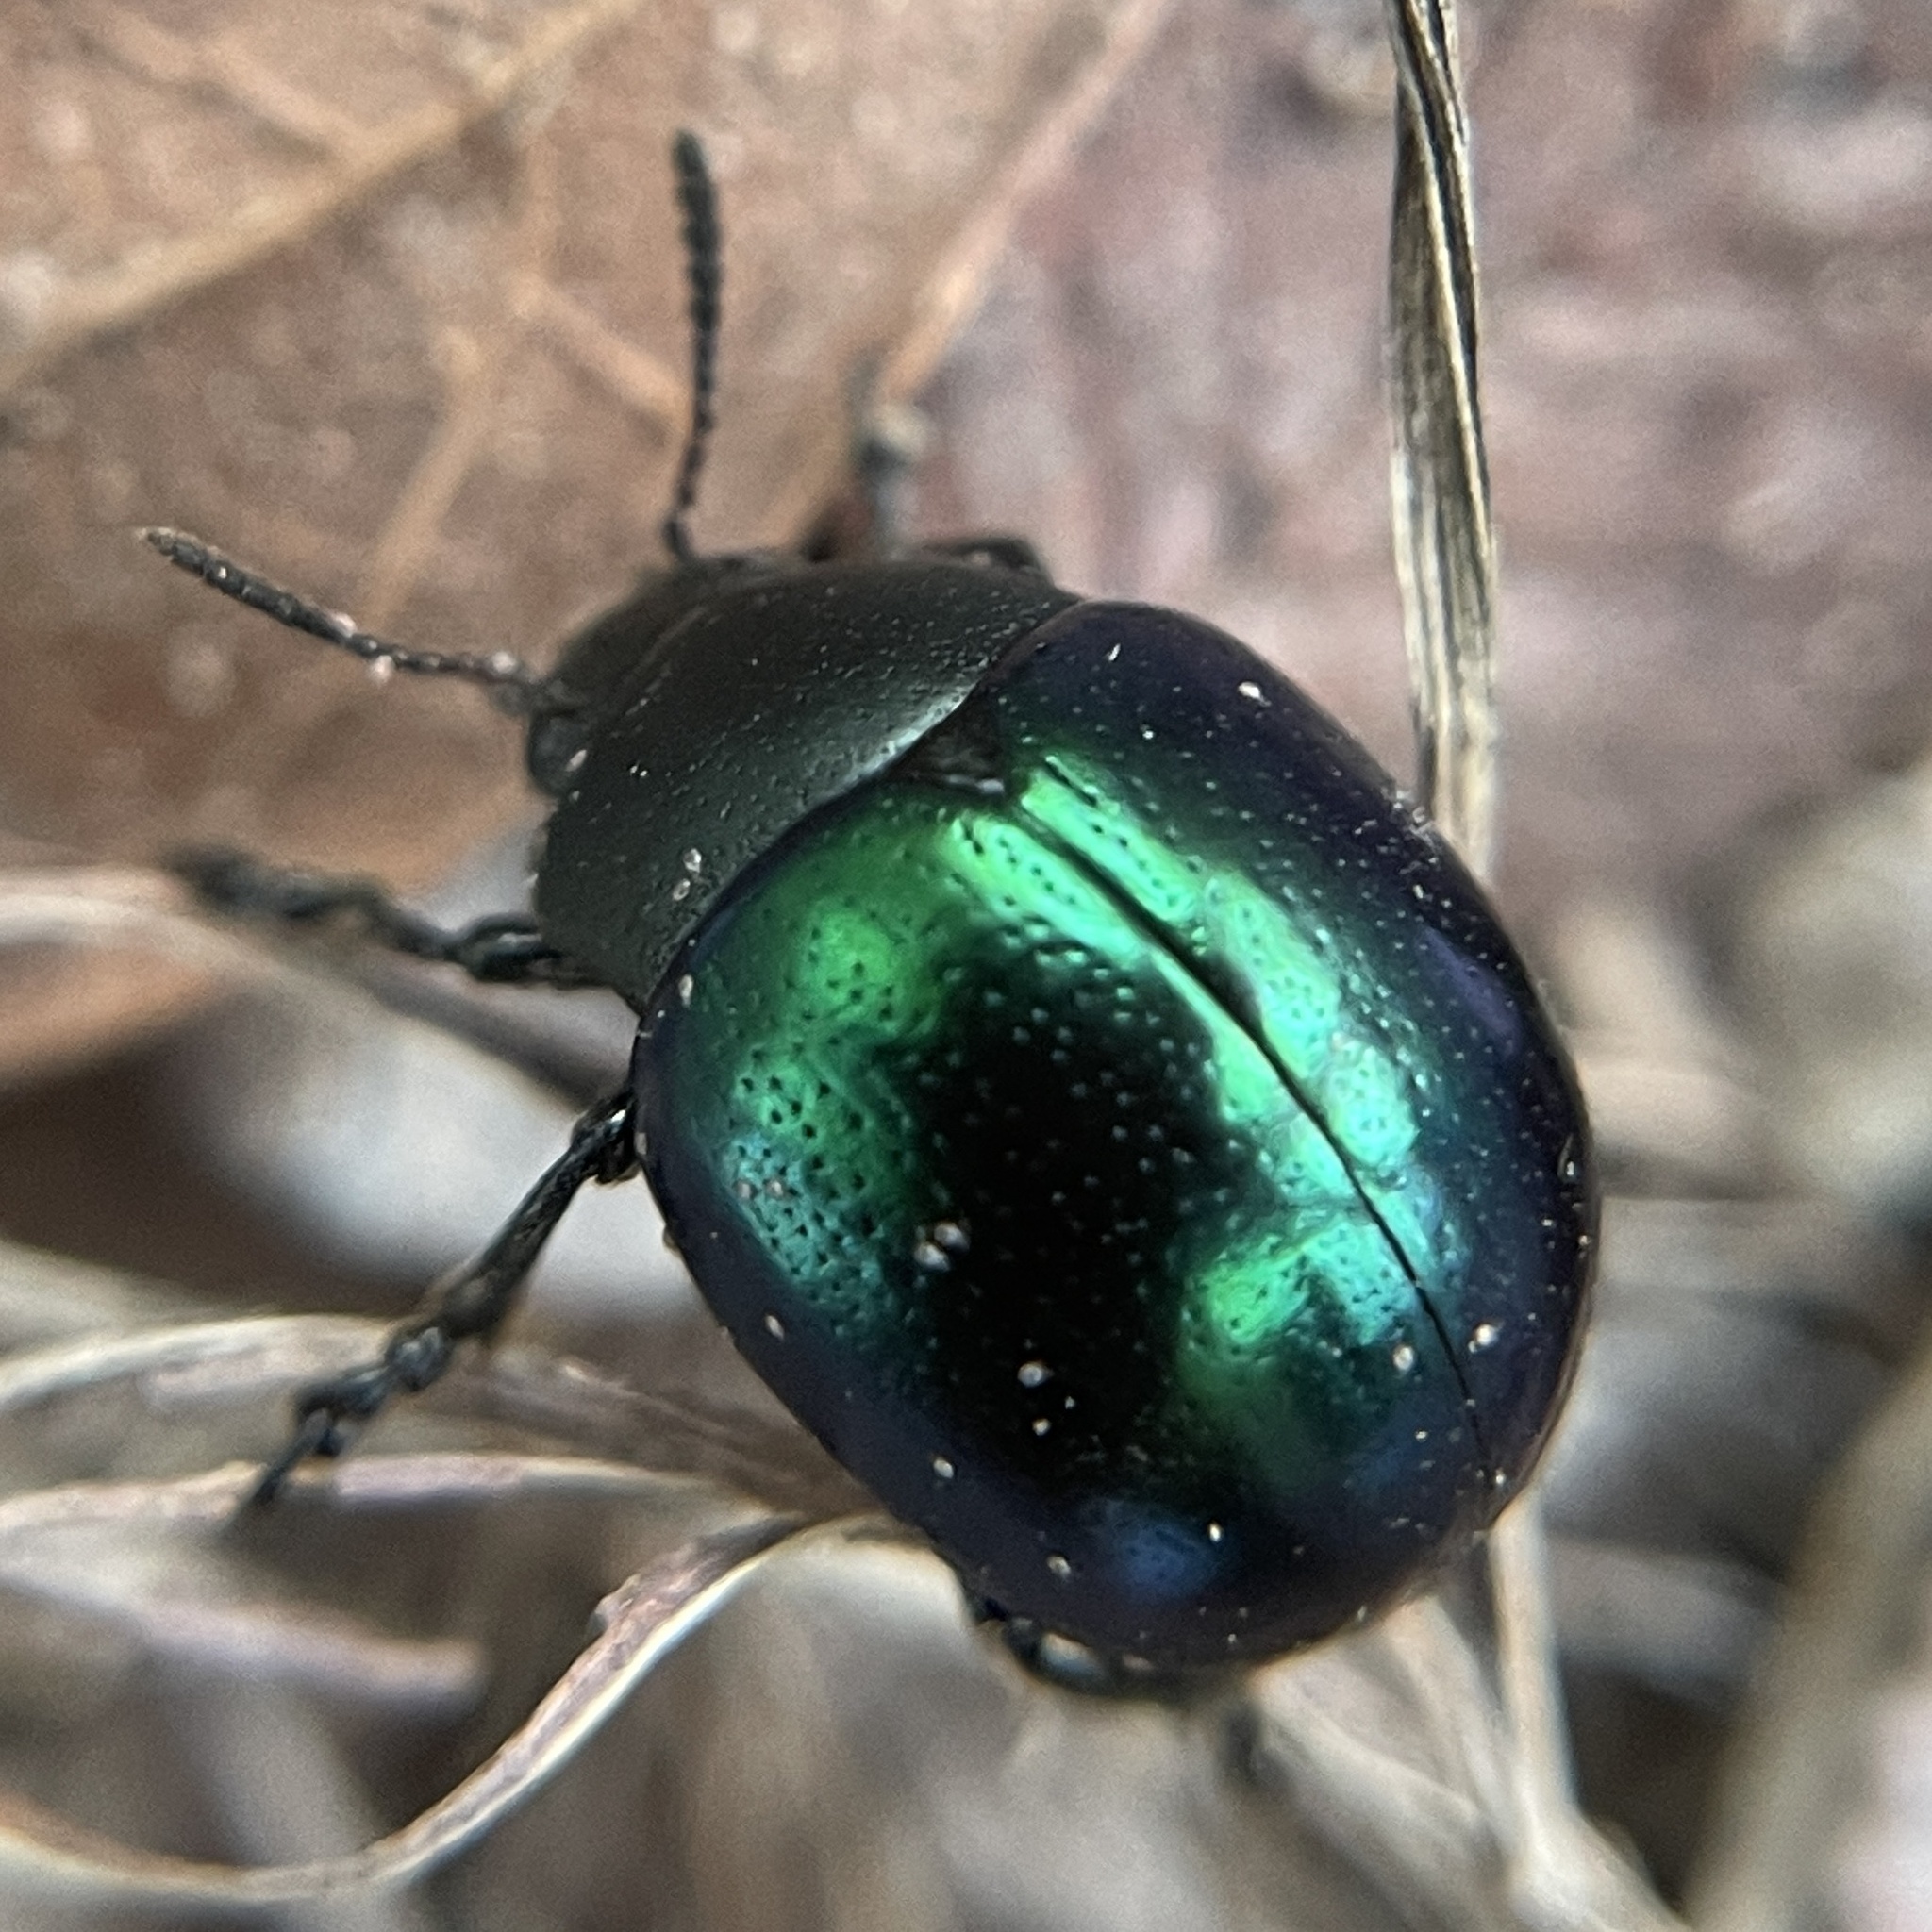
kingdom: Animalia
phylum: Arthropoda
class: Insecta
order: Coleoptera
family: Chrysomelidae
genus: Leptinotarsa
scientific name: Leptinotarsa haldemani
